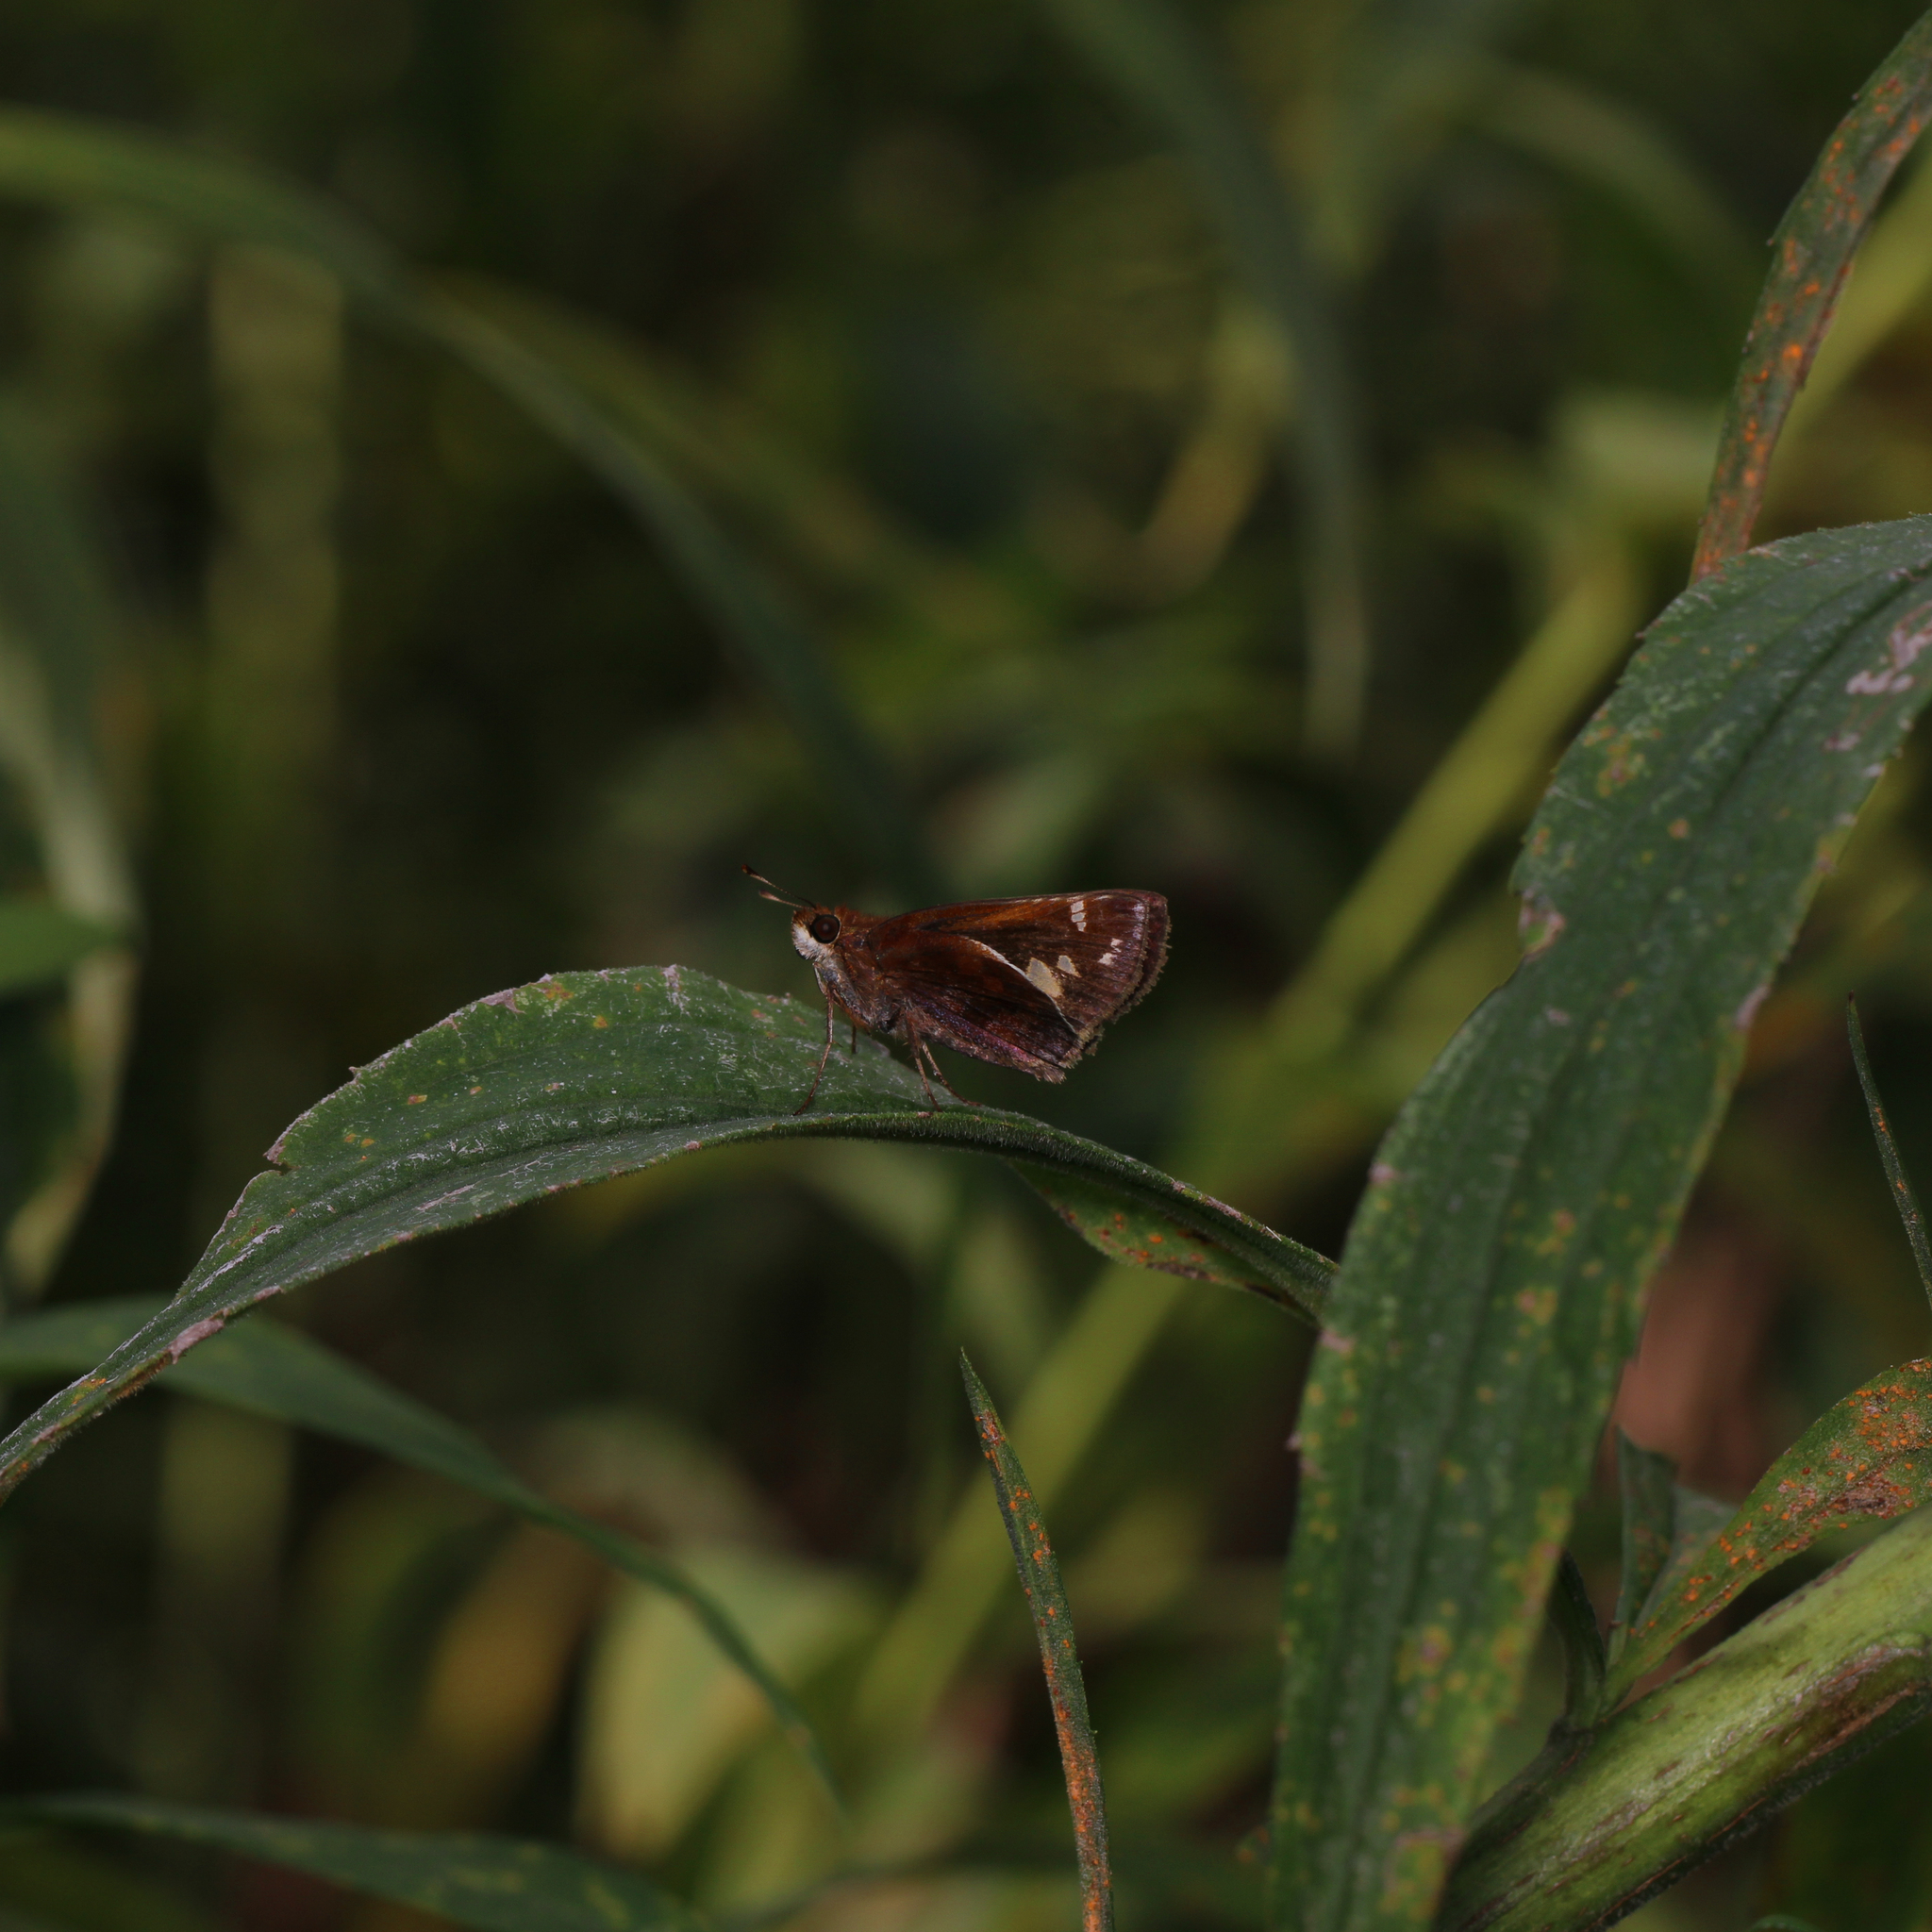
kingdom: Animalia
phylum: Arthropoda
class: Insecta
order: Lepidoptera
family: Hesperiidae
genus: Lon
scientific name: Lon zabulon
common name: Zabulon skipper
